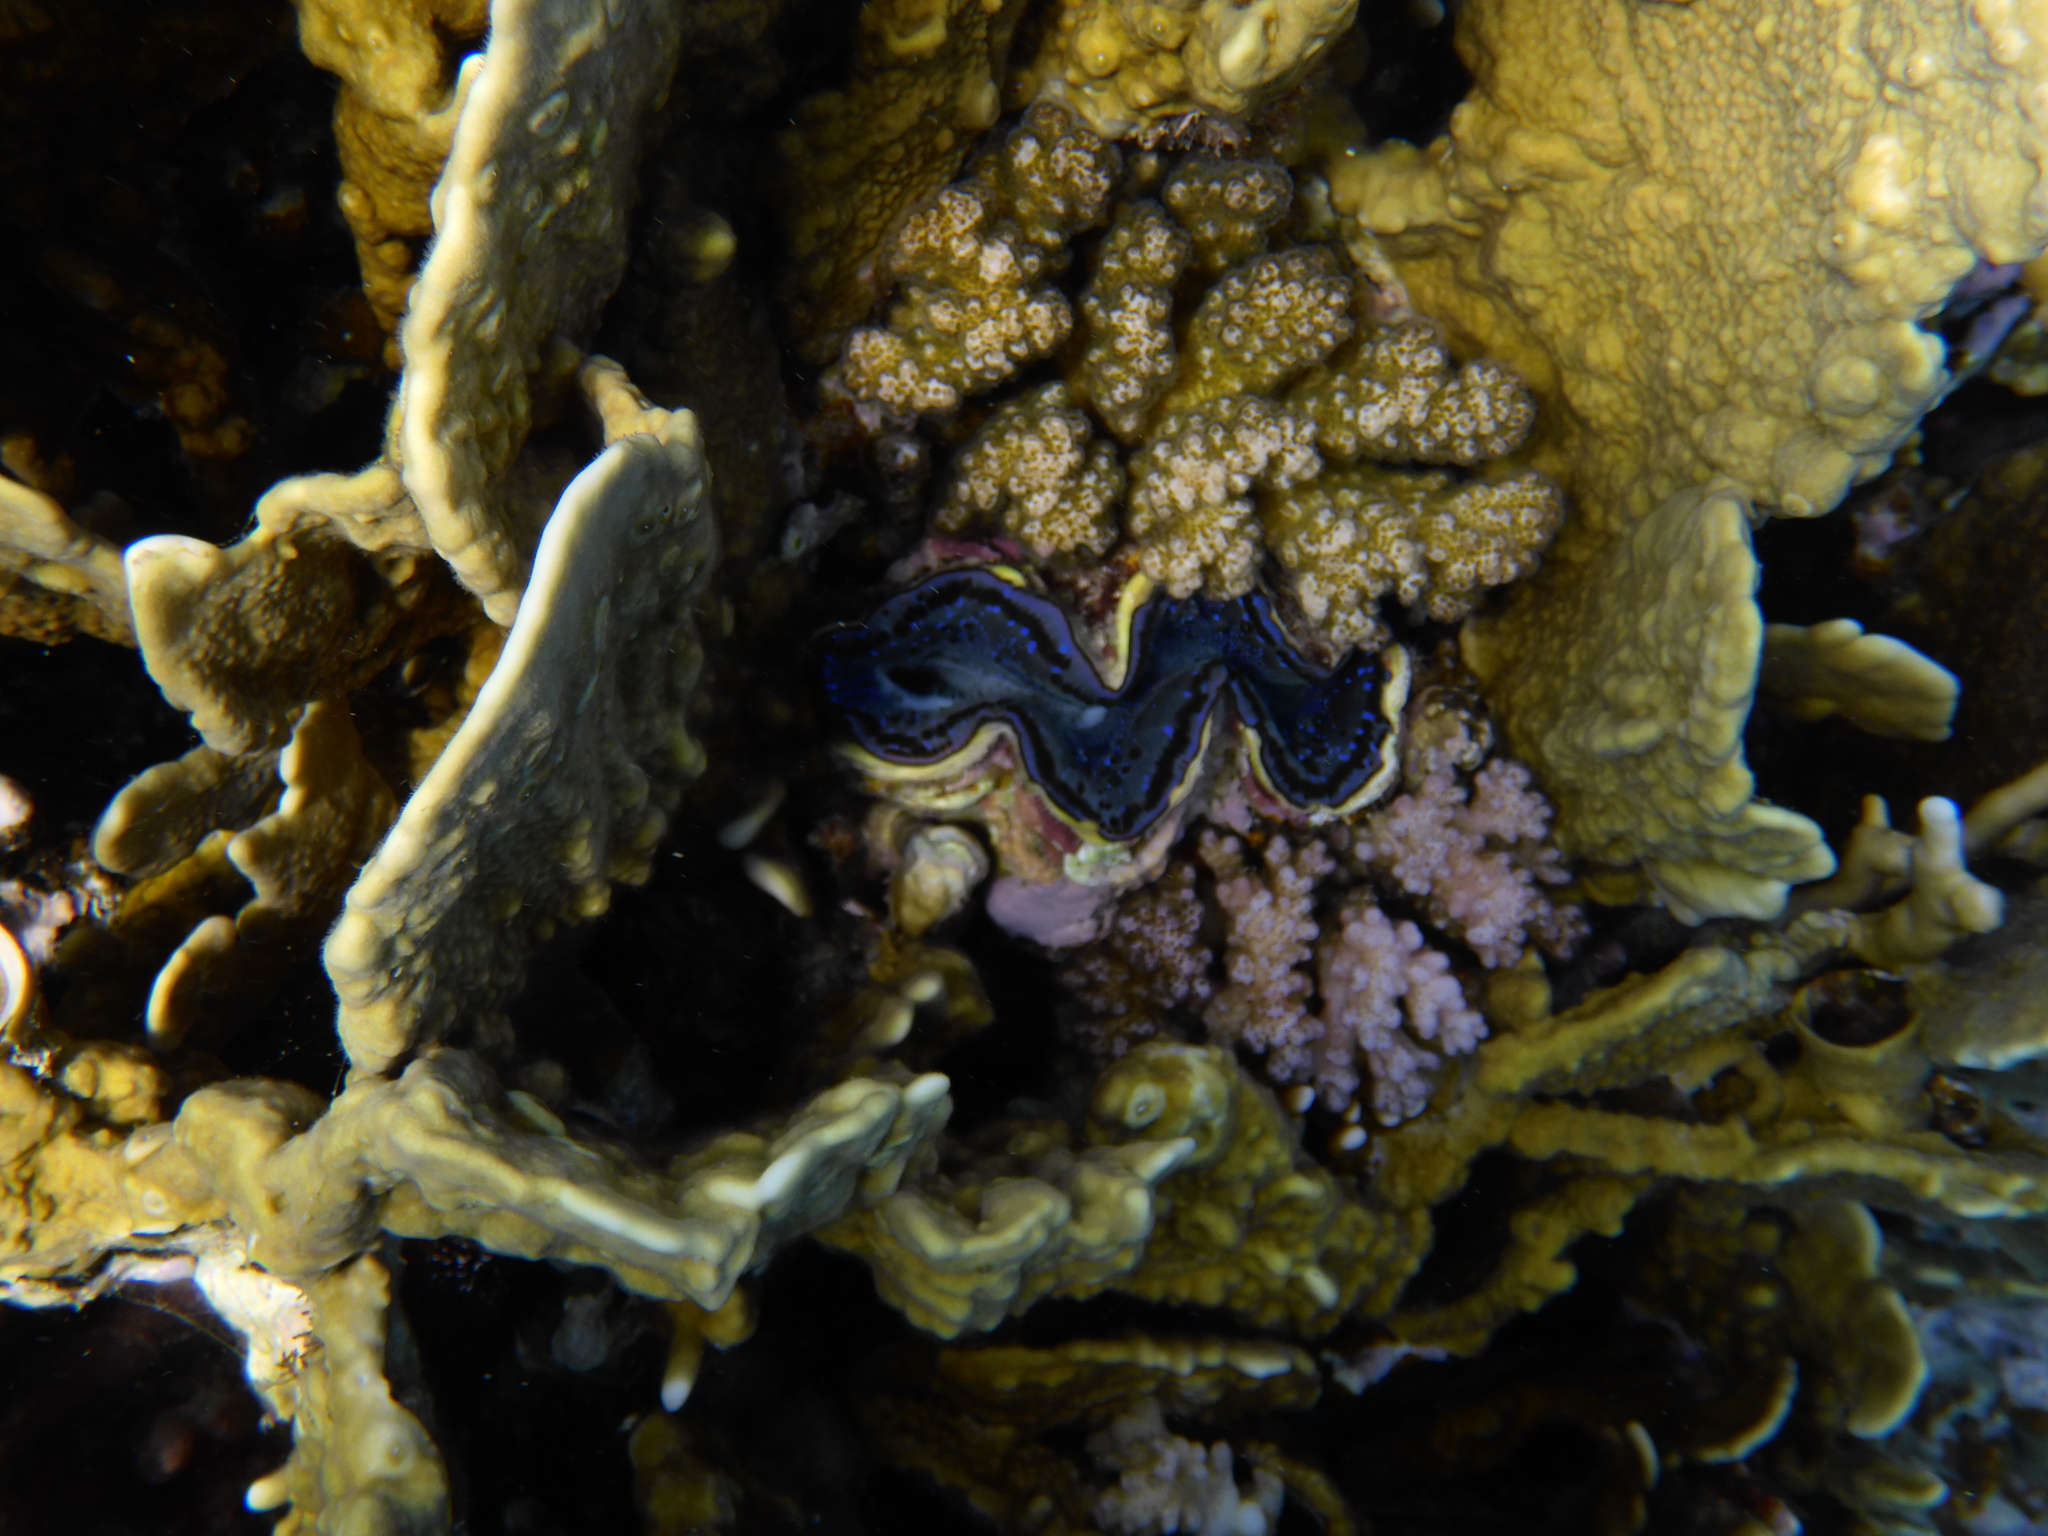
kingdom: Animalia
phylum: Mollusca
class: Bivalvia
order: Cardiida
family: Cardiidae
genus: Tridacna
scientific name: Tridacna maxima
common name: Small giant clam
